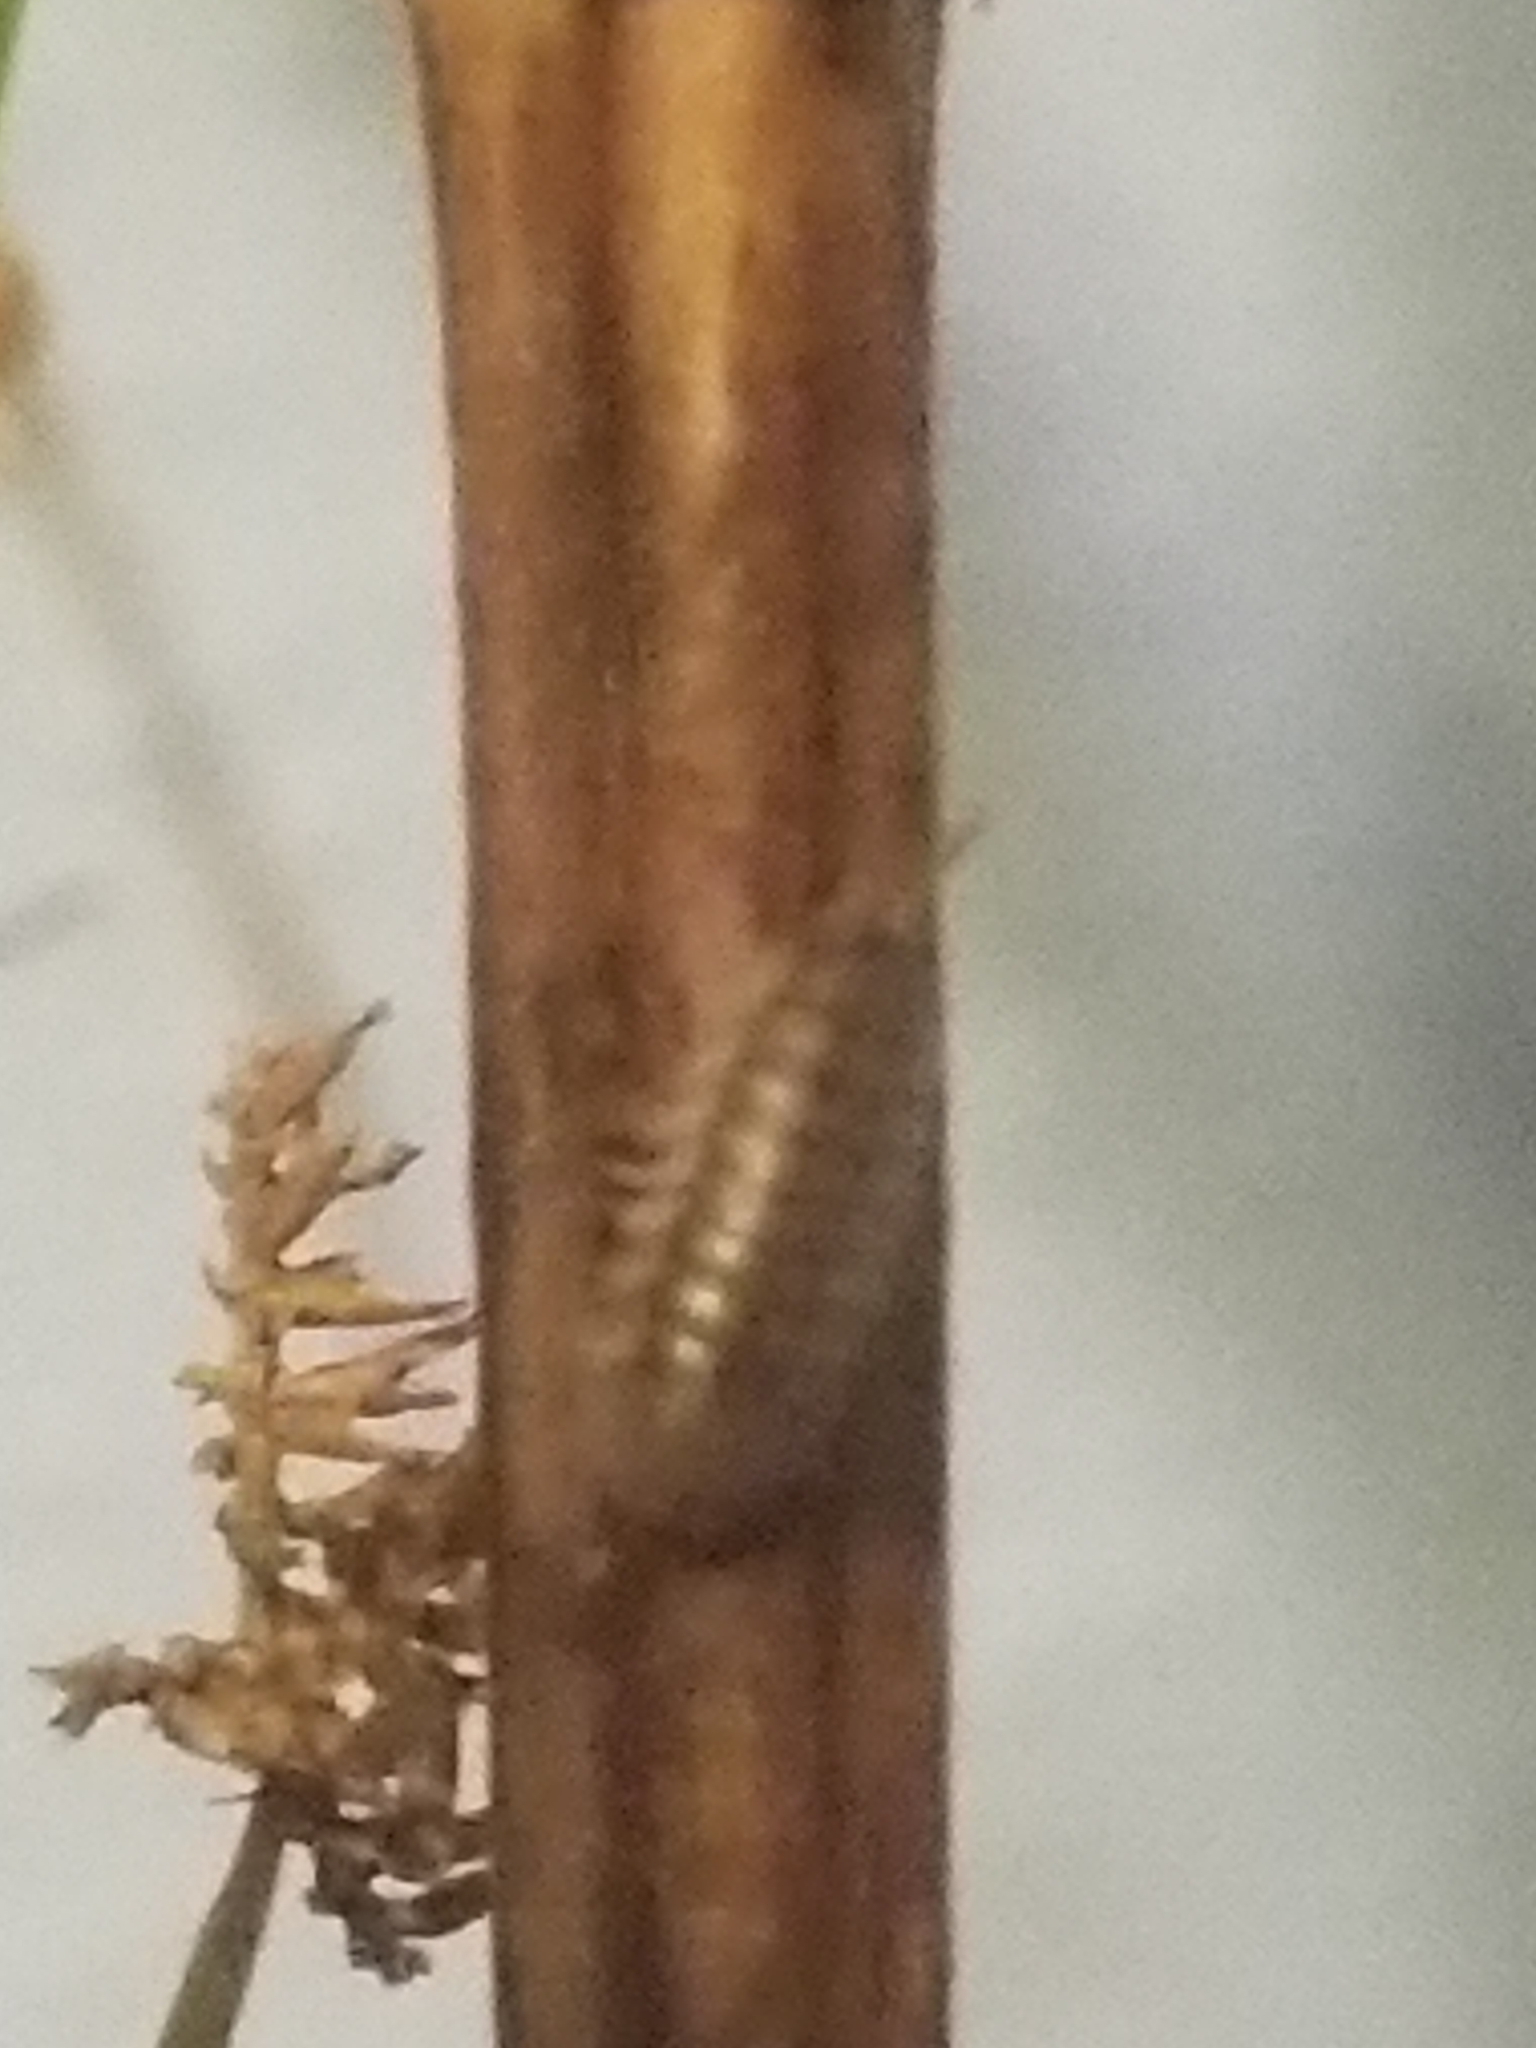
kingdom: Animalia
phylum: Arthropoda
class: Malacostraca
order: Isopoda
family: Armadillidiidae
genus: Armadillidium
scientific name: Armadillidium nasatum
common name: Isopod
